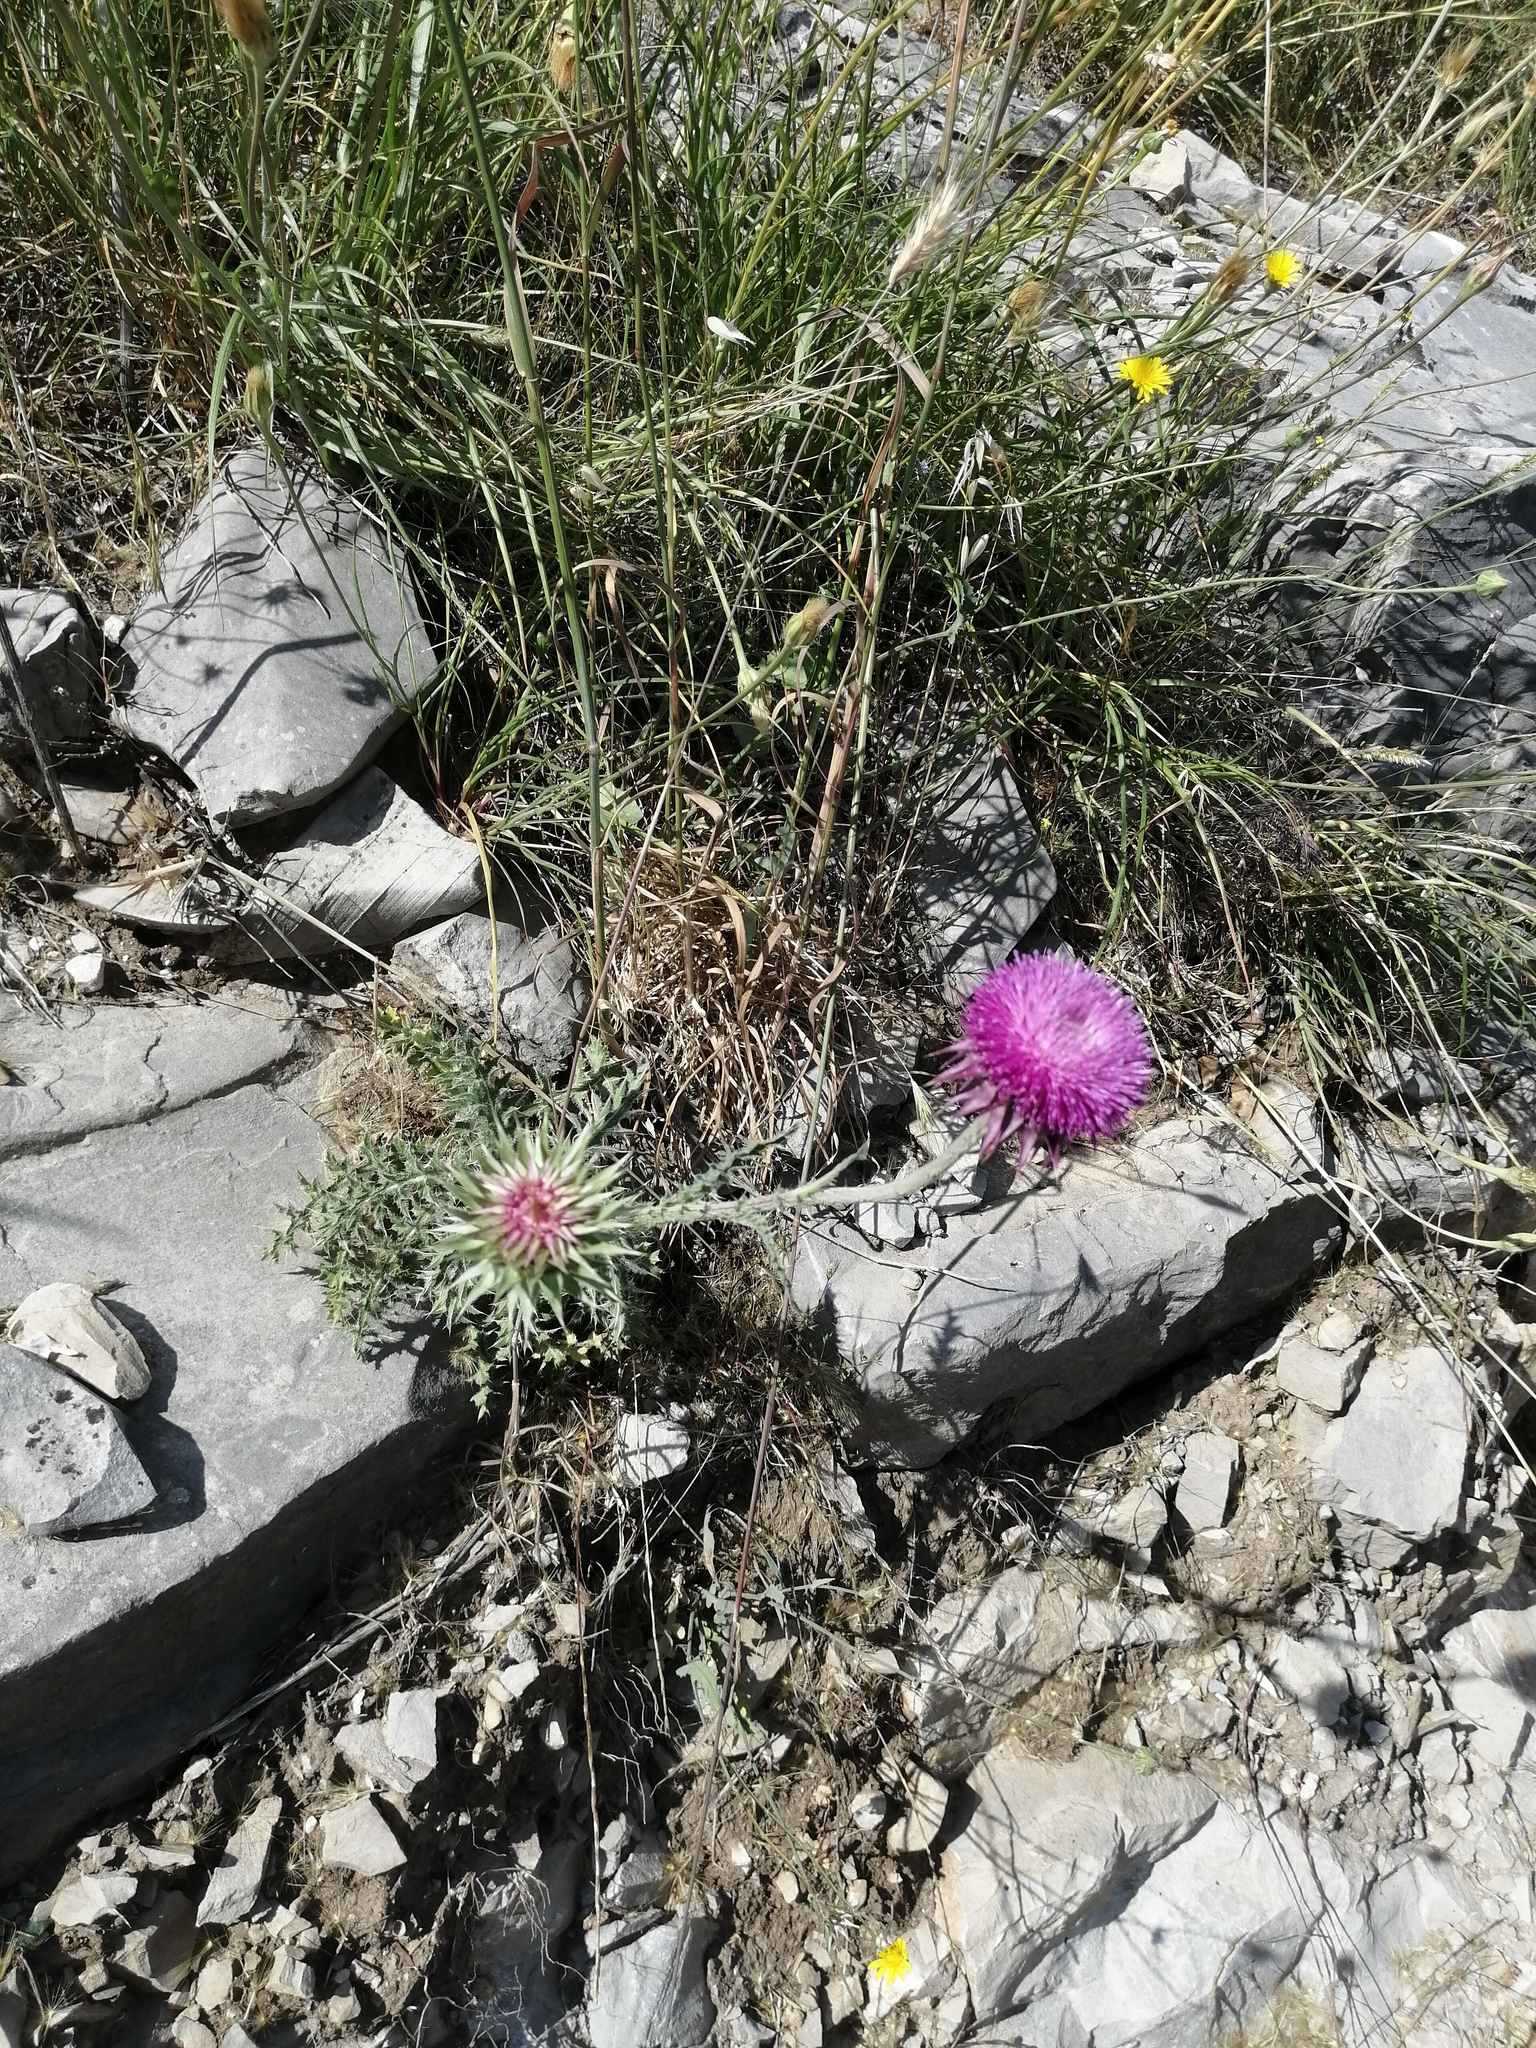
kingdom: Plantae
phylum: Tracheophyta
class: Magnoliopsida
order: Asterales
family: Asteraceae
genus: Carduus
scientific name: Carduus nutans
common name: Musk thistle
